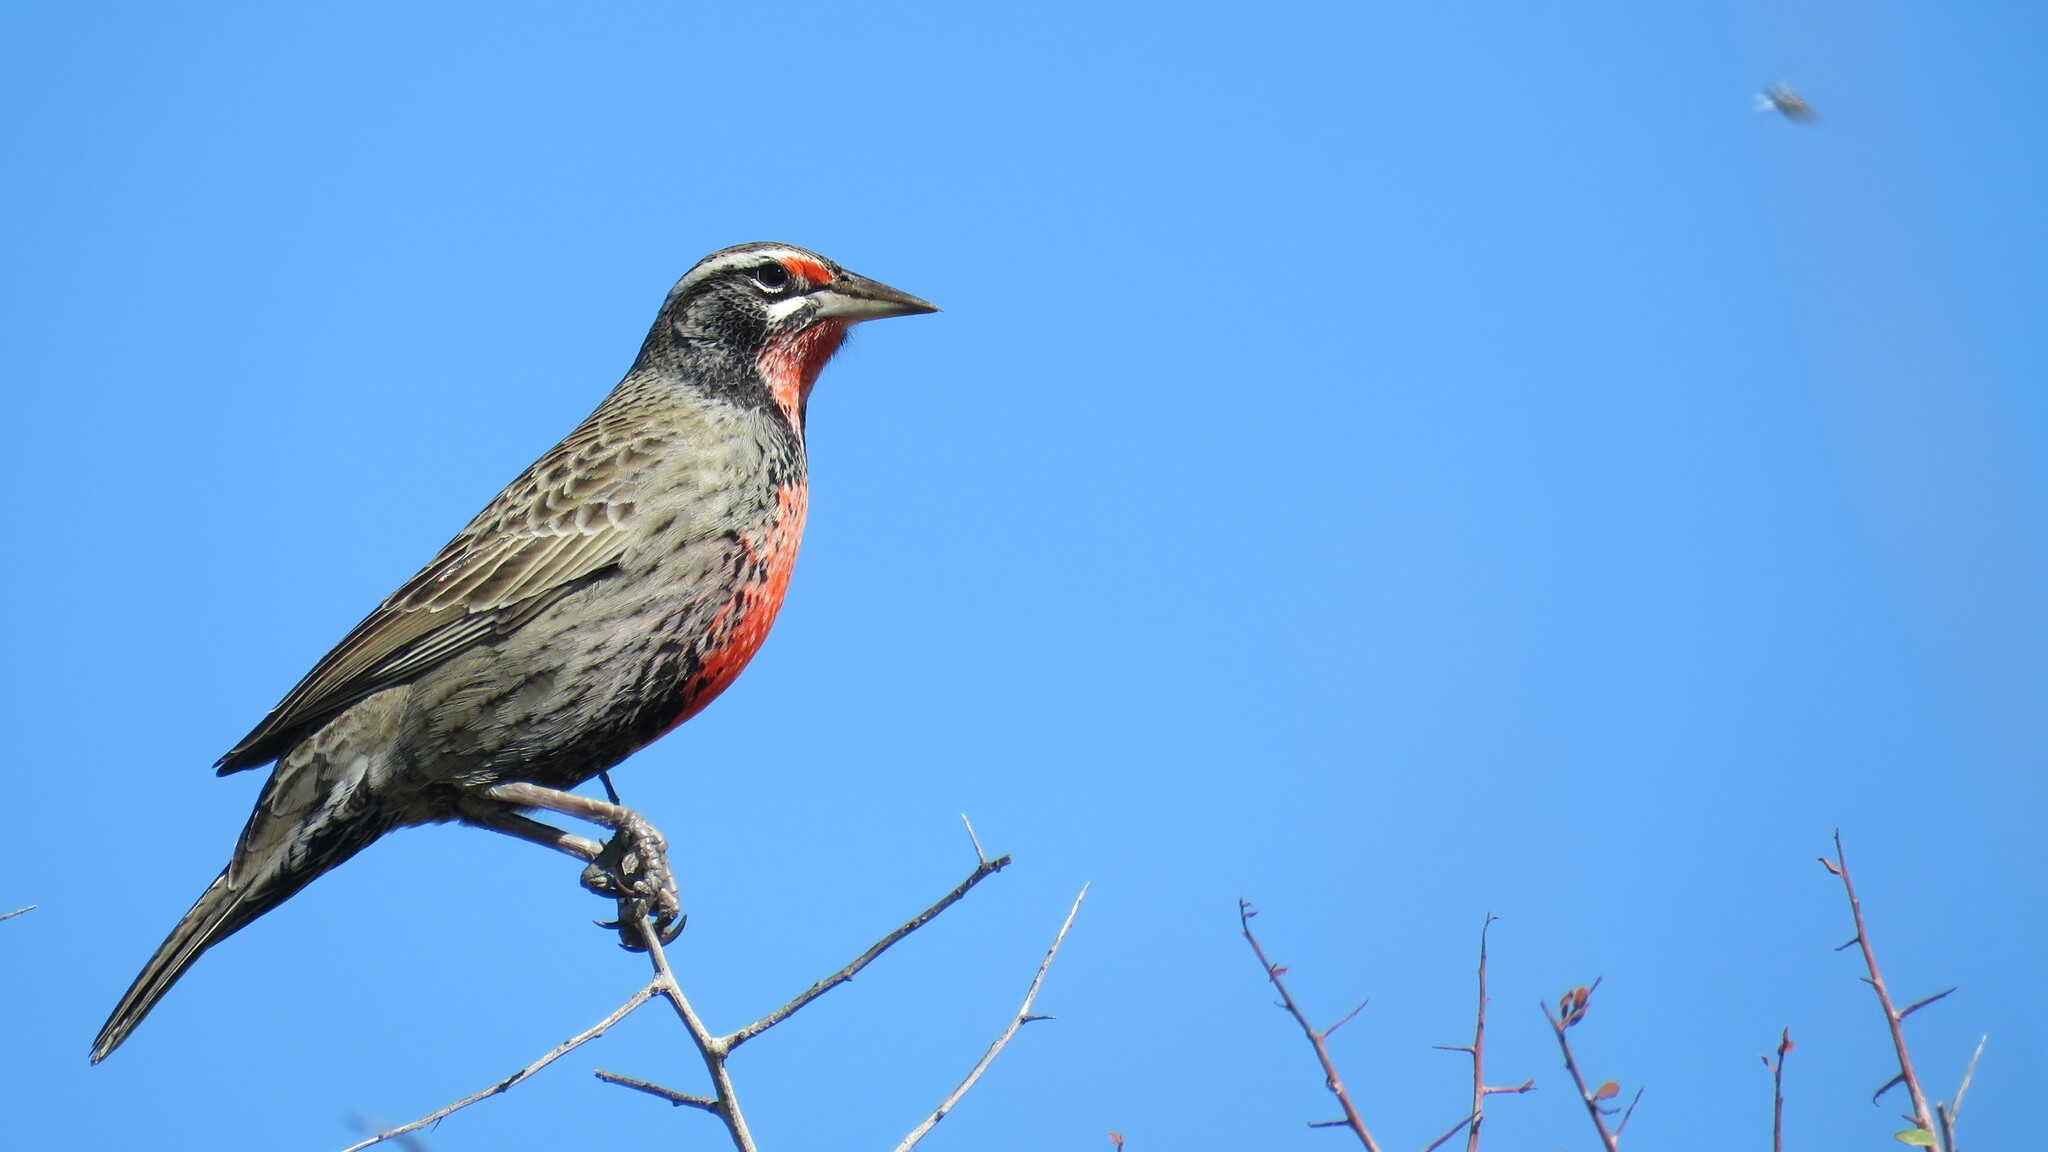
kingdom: Animalia
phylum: Chordata
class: Aves
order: Passeriformes
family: Icteridae
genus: Sturnella
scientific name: Sturnella loyca
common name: Long-tailed meadowlark
